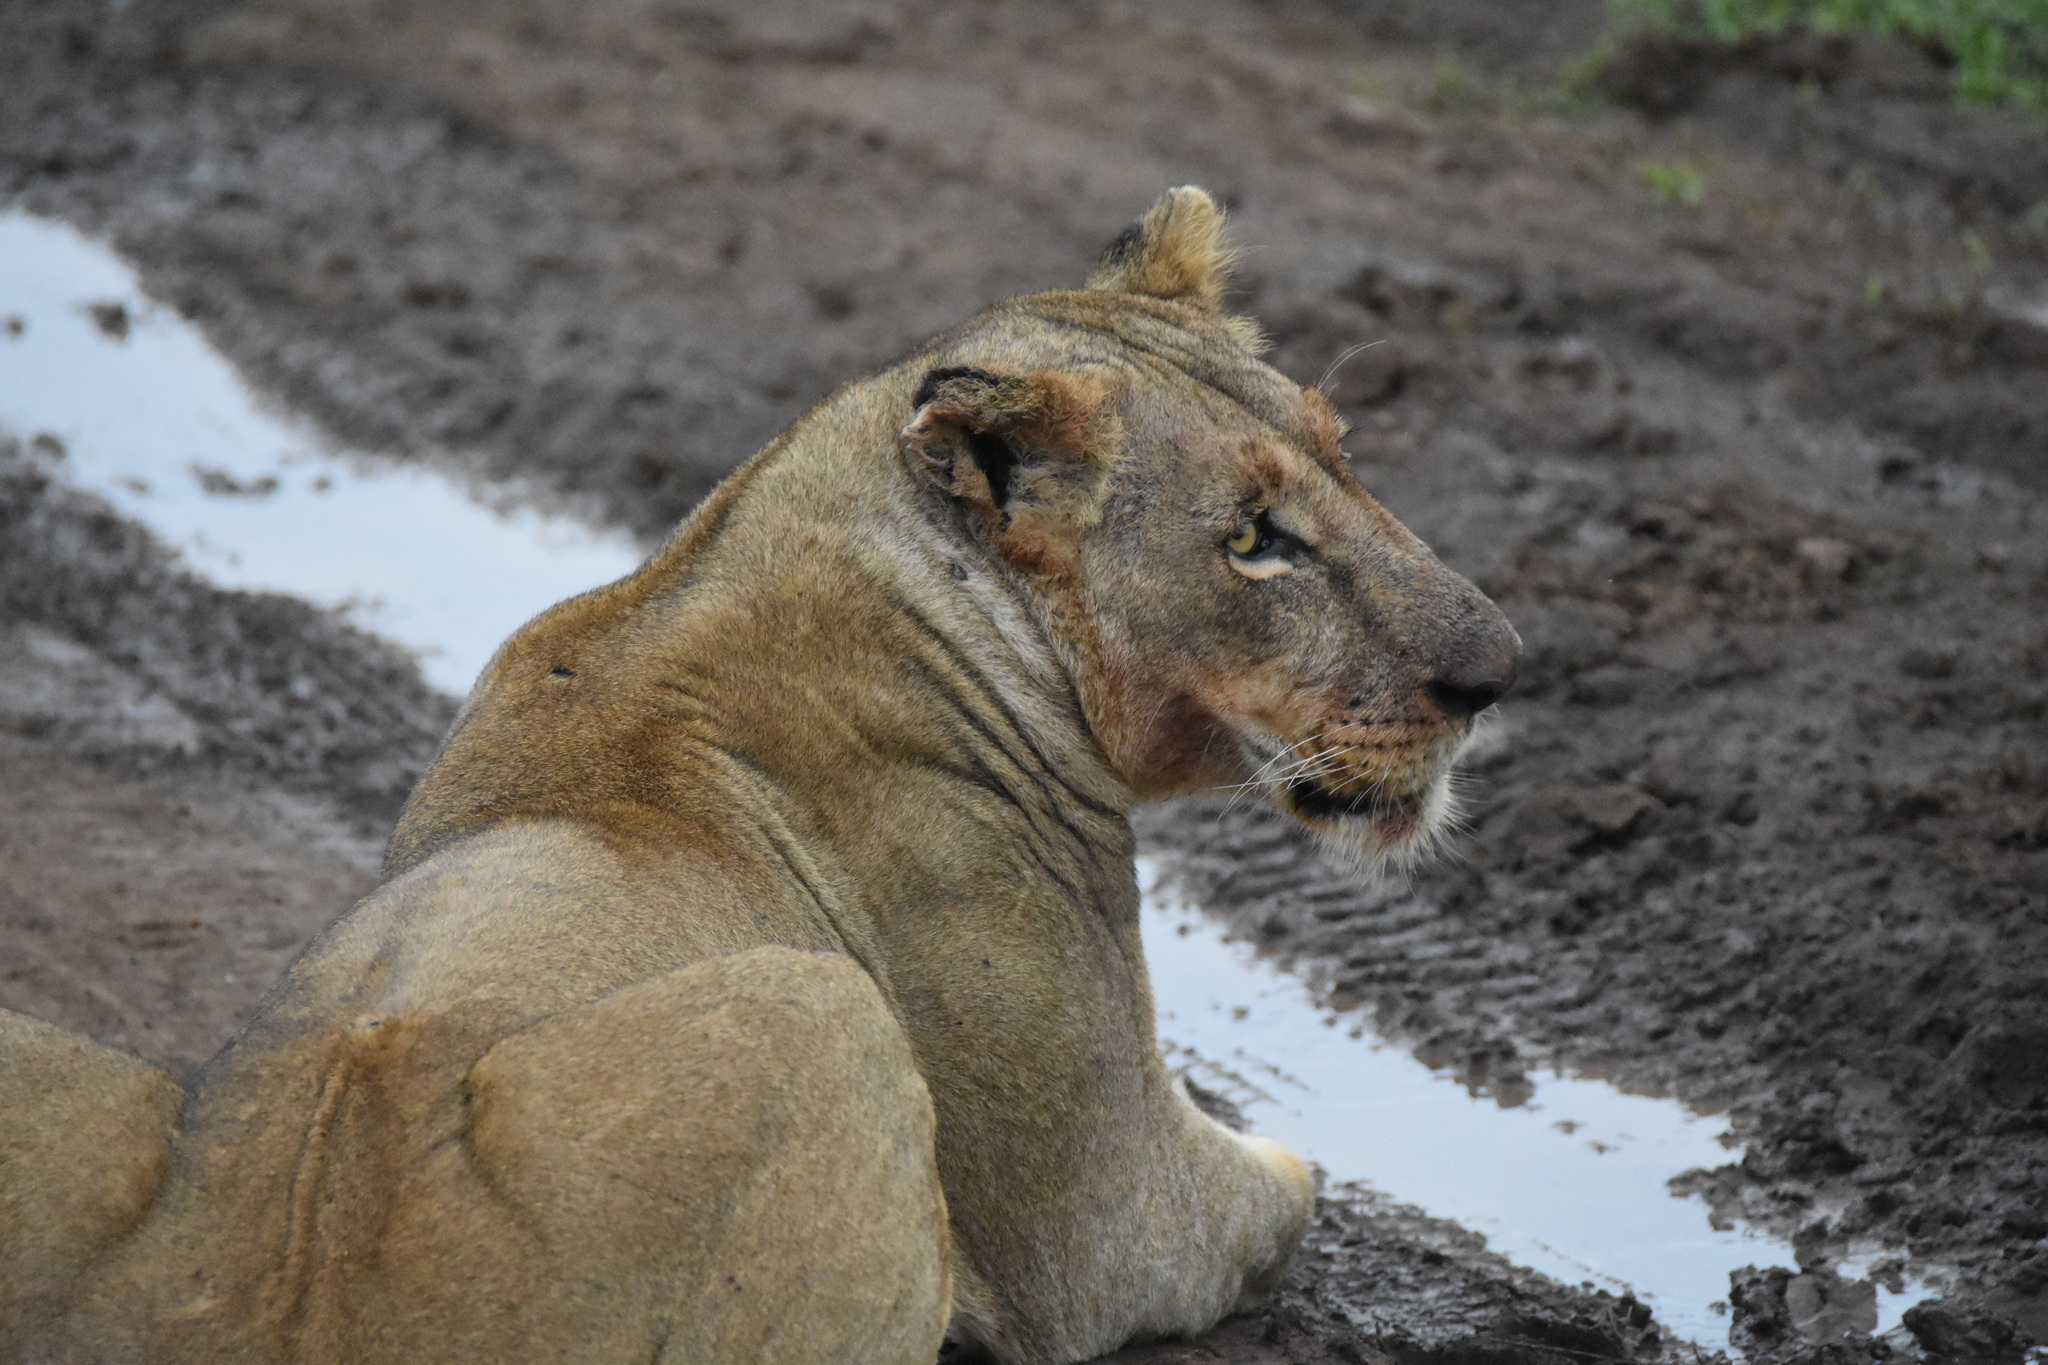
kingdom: Animalia
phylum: Chordata
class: Mammalia
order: Carnivora
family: Felidae
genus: Panthera
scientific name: Panthera leo
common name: Lion
